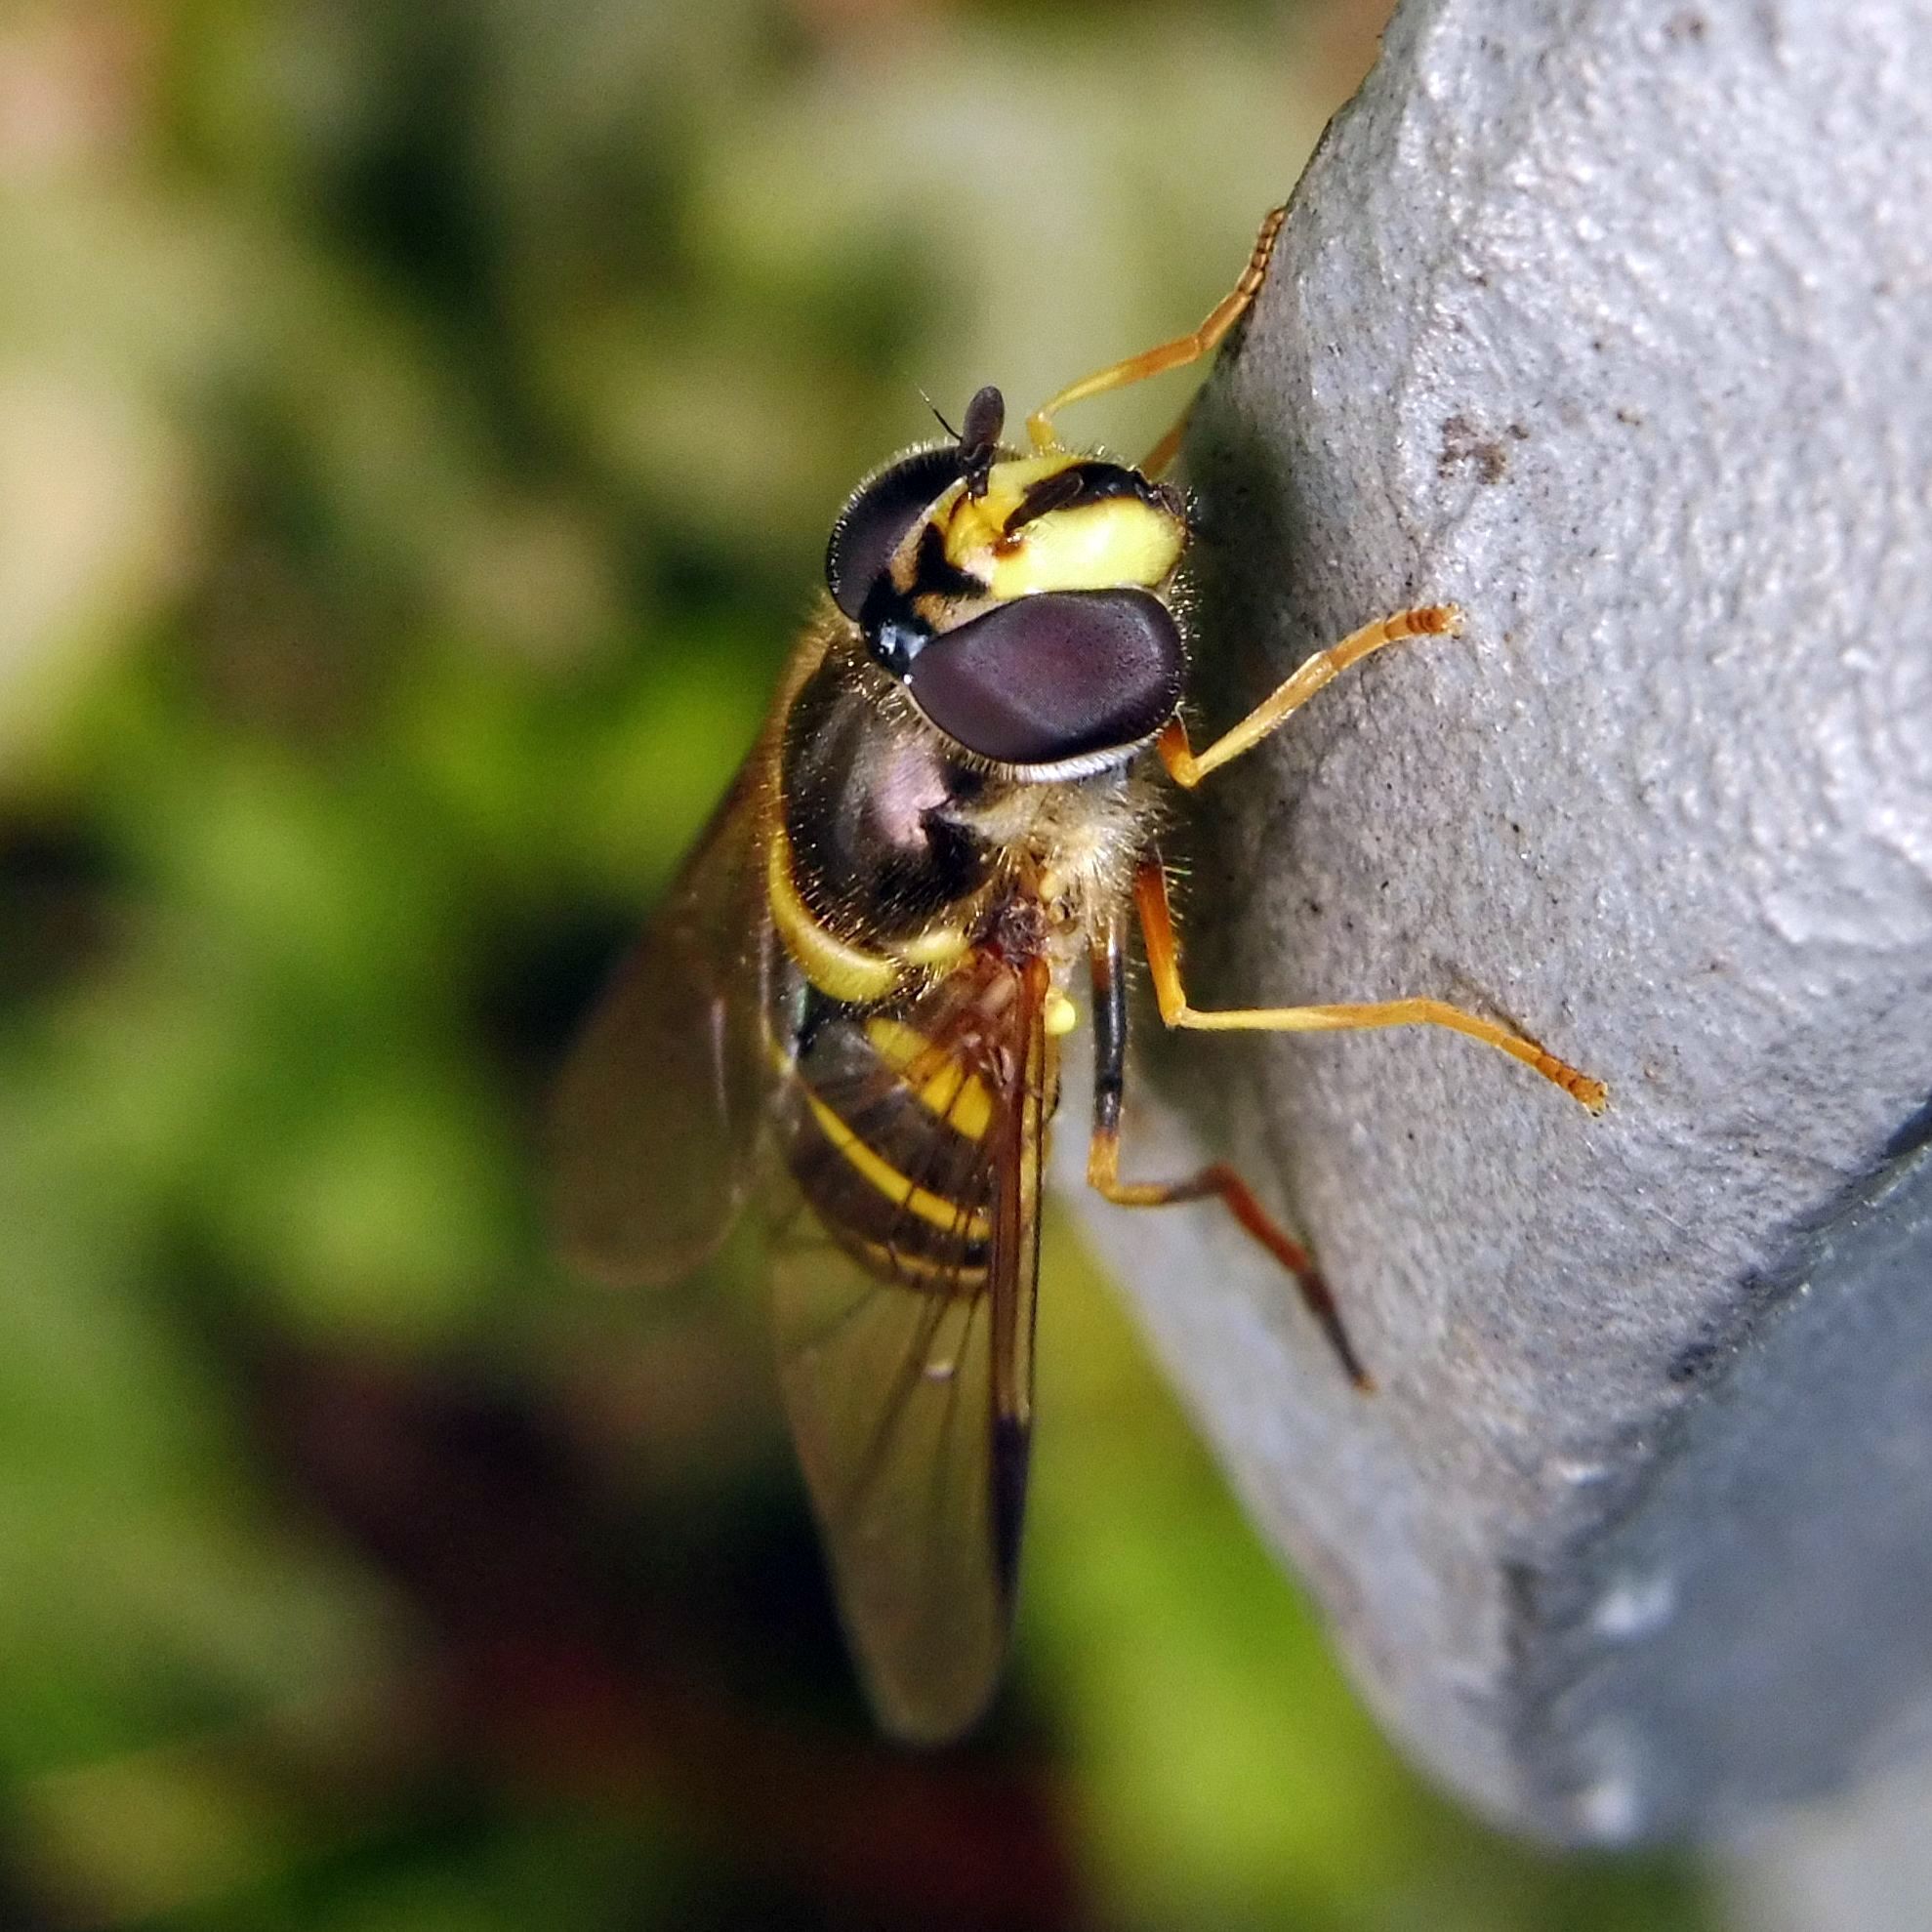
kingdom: Animalia
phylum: Arthropoda
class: Insecta
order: Diptera
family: Syrphidae
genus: Dasysyrphus
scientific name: Dasysyrphus albostriatus
